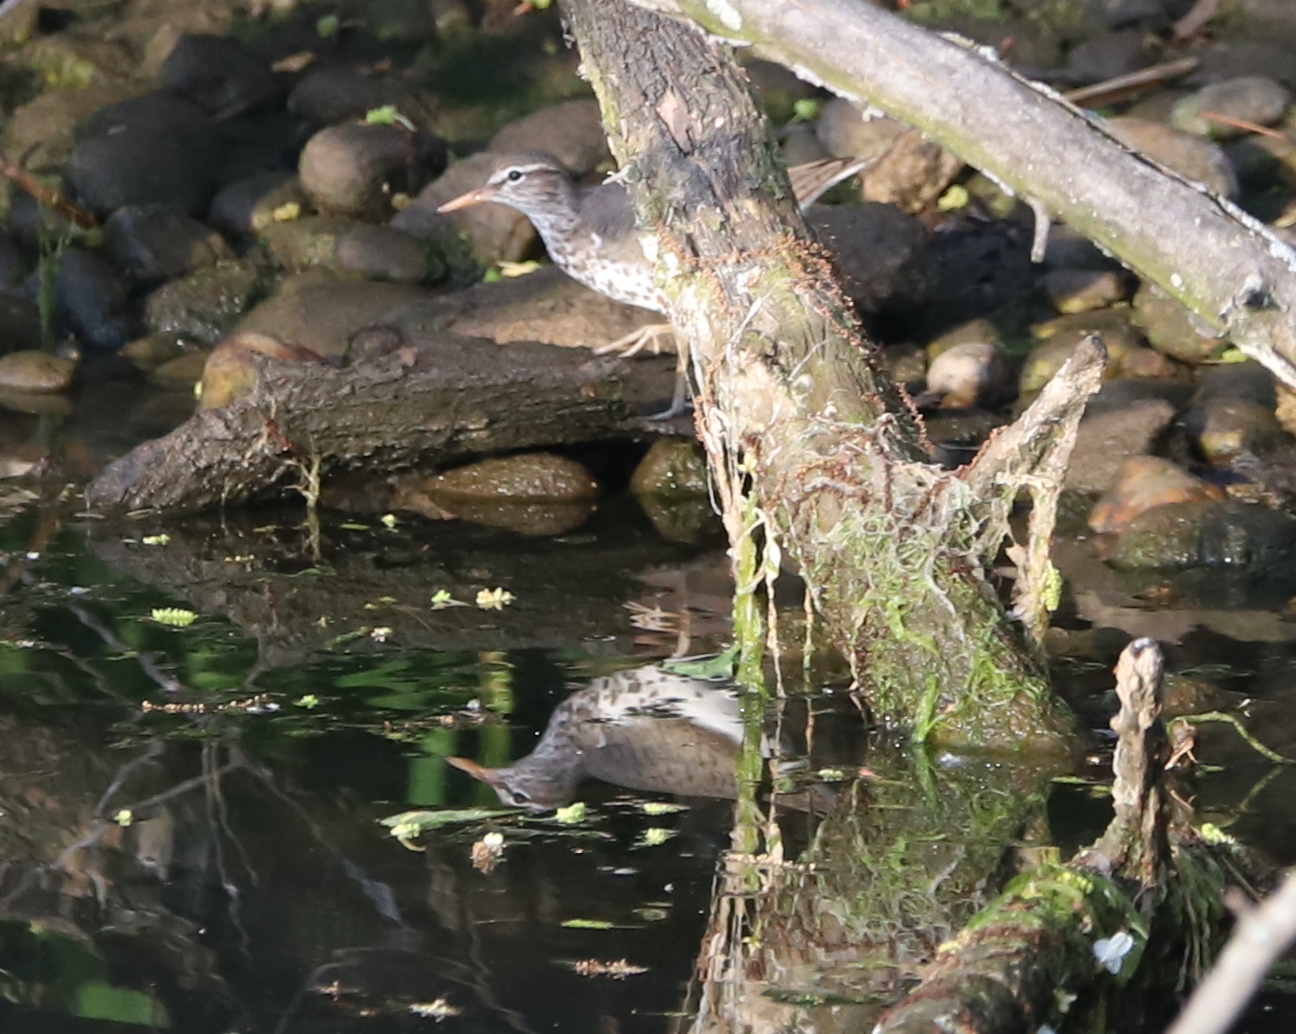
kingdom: Animalia
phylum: Chordata
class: Aves
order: Charadriiformes
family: Scolopacidae
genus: Actitis
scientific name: Actitis macularius
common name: Spotted sandpiper
